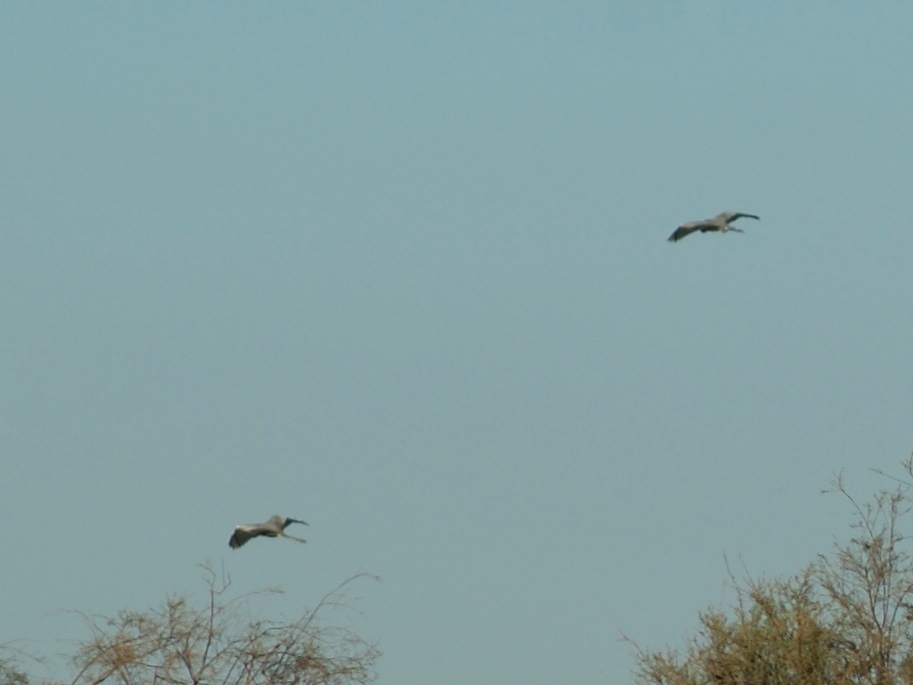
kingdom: Animalia
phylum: Chordata
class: Aves
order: Pelecaniformes
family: Ardeidae
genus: Ardea
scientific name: Ardea cinerea
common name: Grey heron
